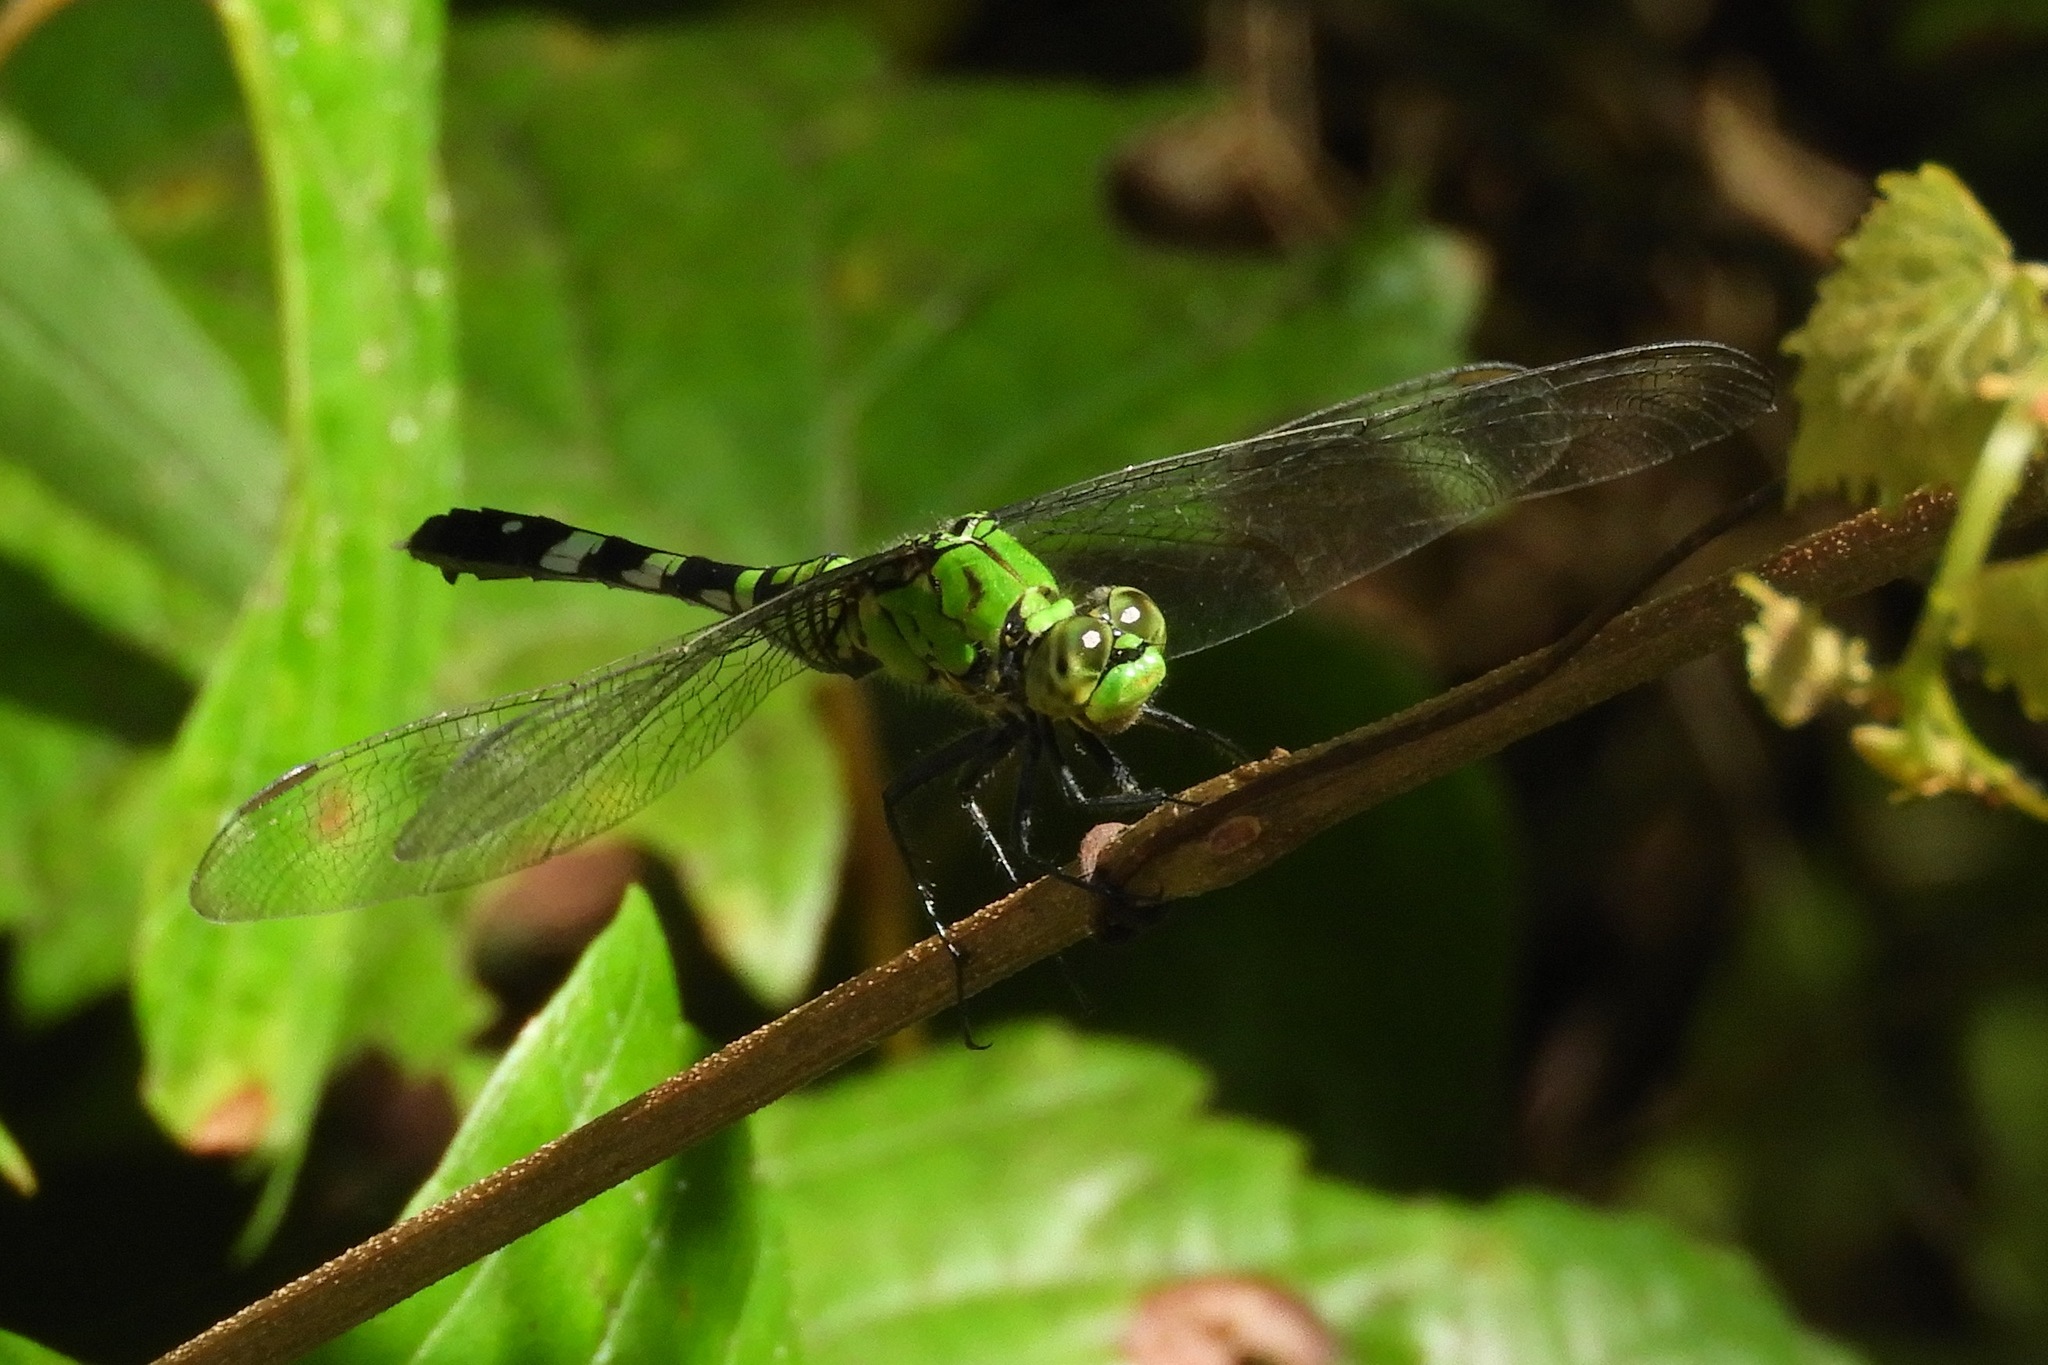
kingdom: Animalia
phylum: Arthropoda
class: Insecta
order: Odonata
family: Libellulidae
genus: Erythemis
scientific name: Erythemis simplicicollis
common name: Eastern pondhawk
